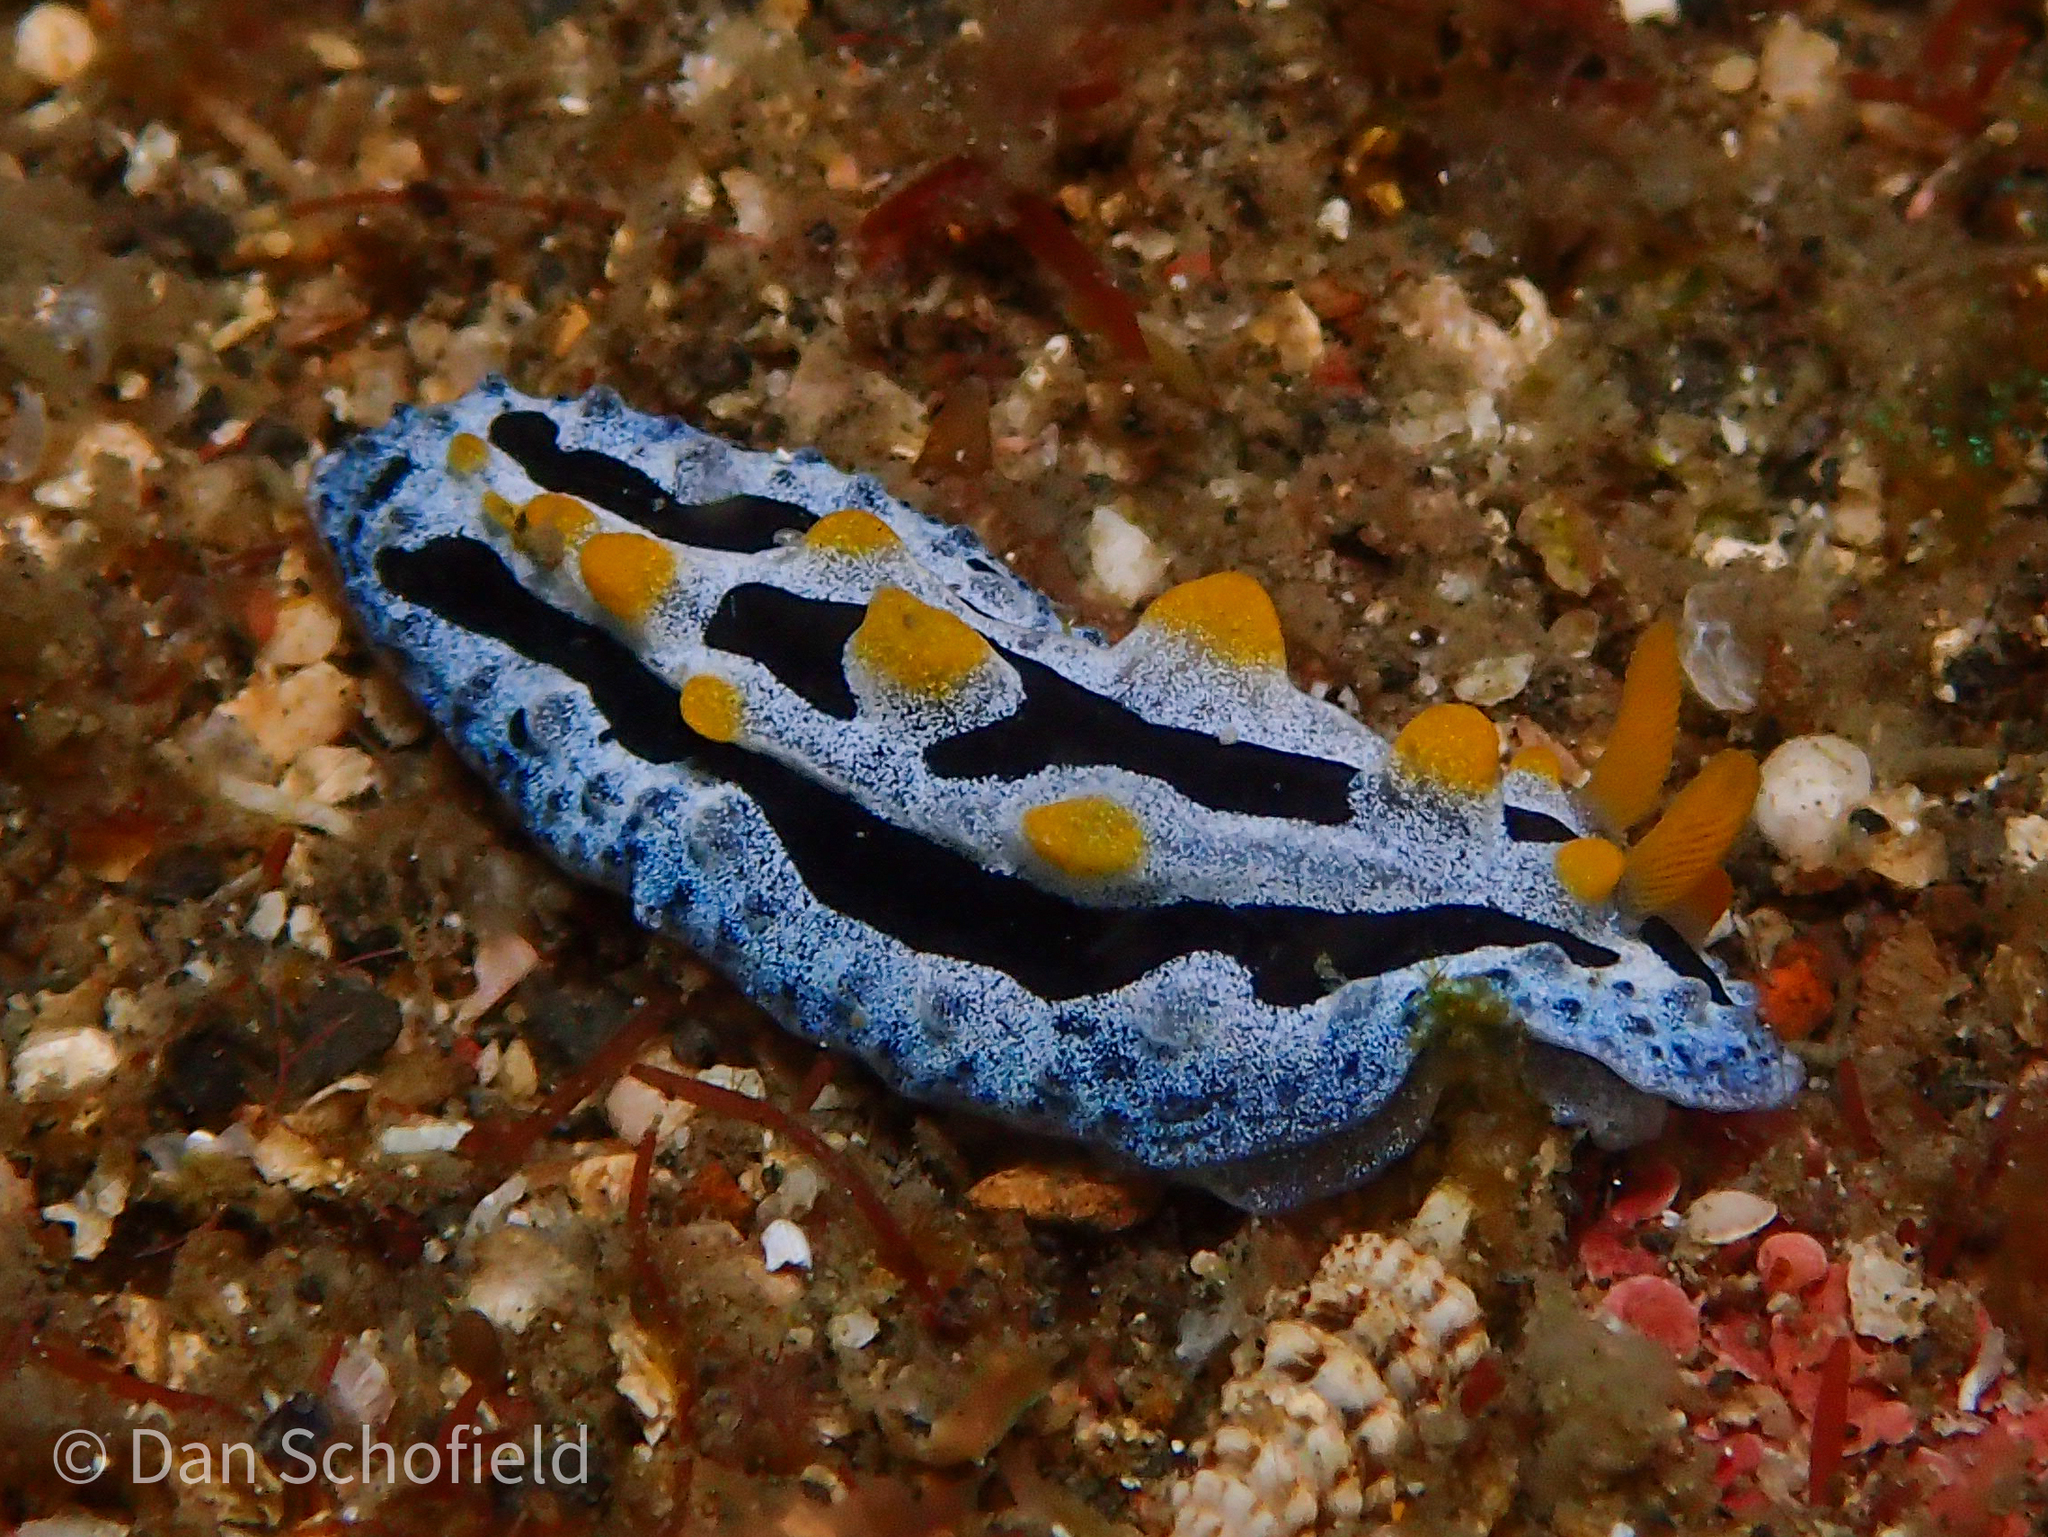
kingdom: Animalia
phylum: Mollusca
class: Gastropoda
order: Nudibranchia
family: Phyllidiidae
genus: Phyllidia
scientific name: Phyllidia coelestis
